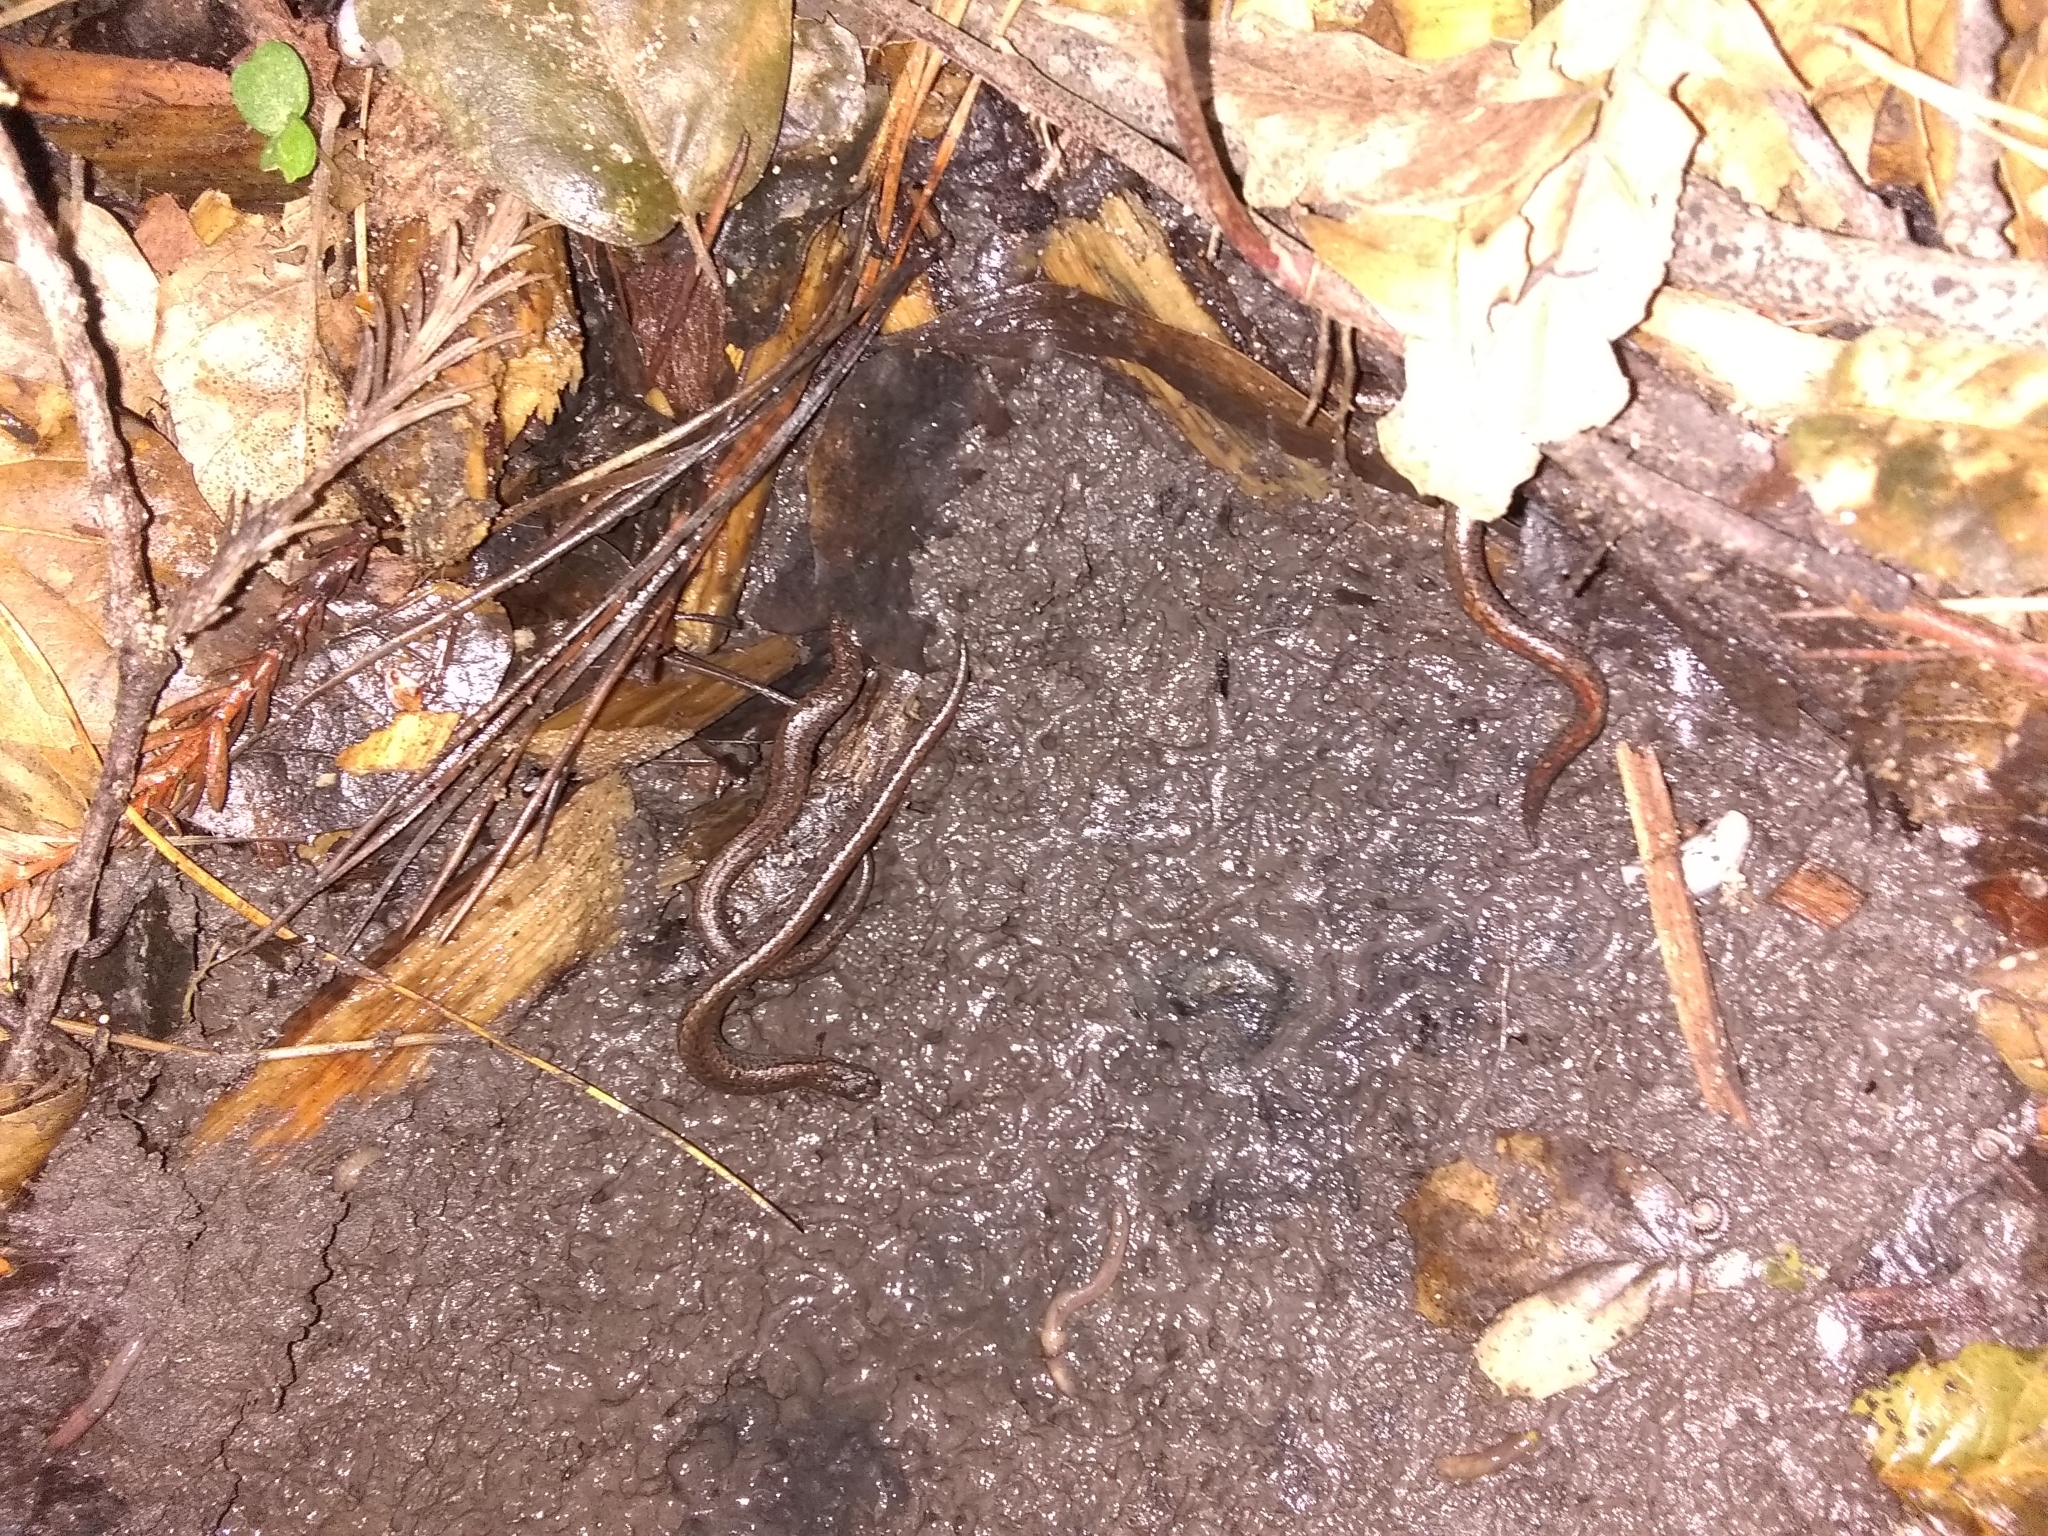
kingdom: Animalia
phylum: Chordata
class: Amphibia
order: Caudata
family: Plethodontidae
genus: Batrachoseps
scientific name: Batrachoseps attenuatus
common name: California slender salamander
